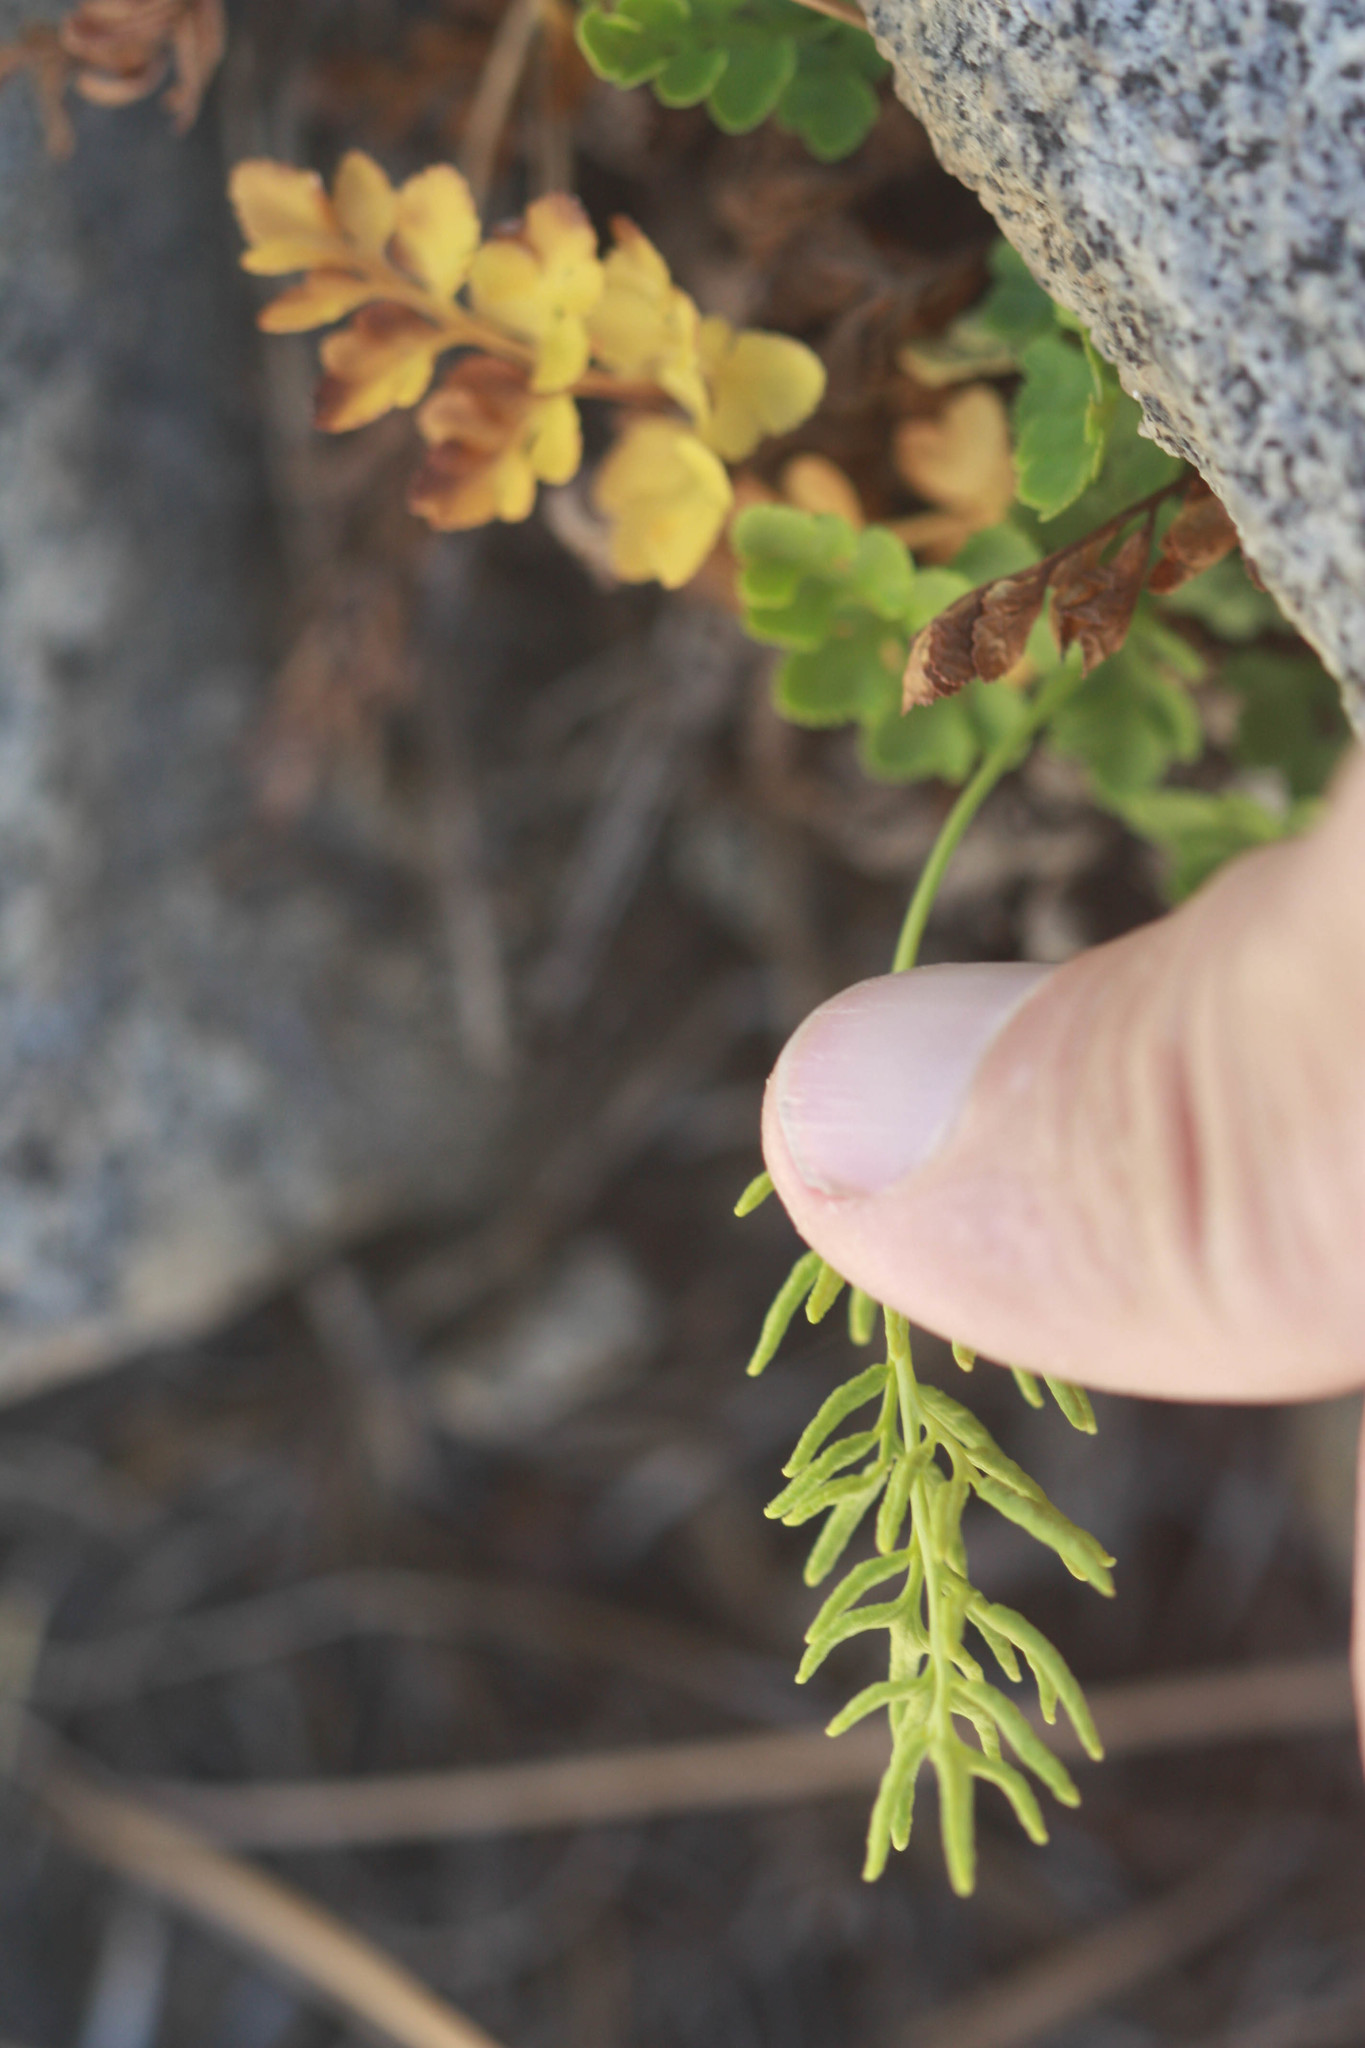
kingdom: Plantae
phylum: Tracheophyta
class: Polypodiopsida
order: Polypodiales
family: Pteridaceae
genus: Cryptogramma
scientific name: Cryptogramma acrostichoides
